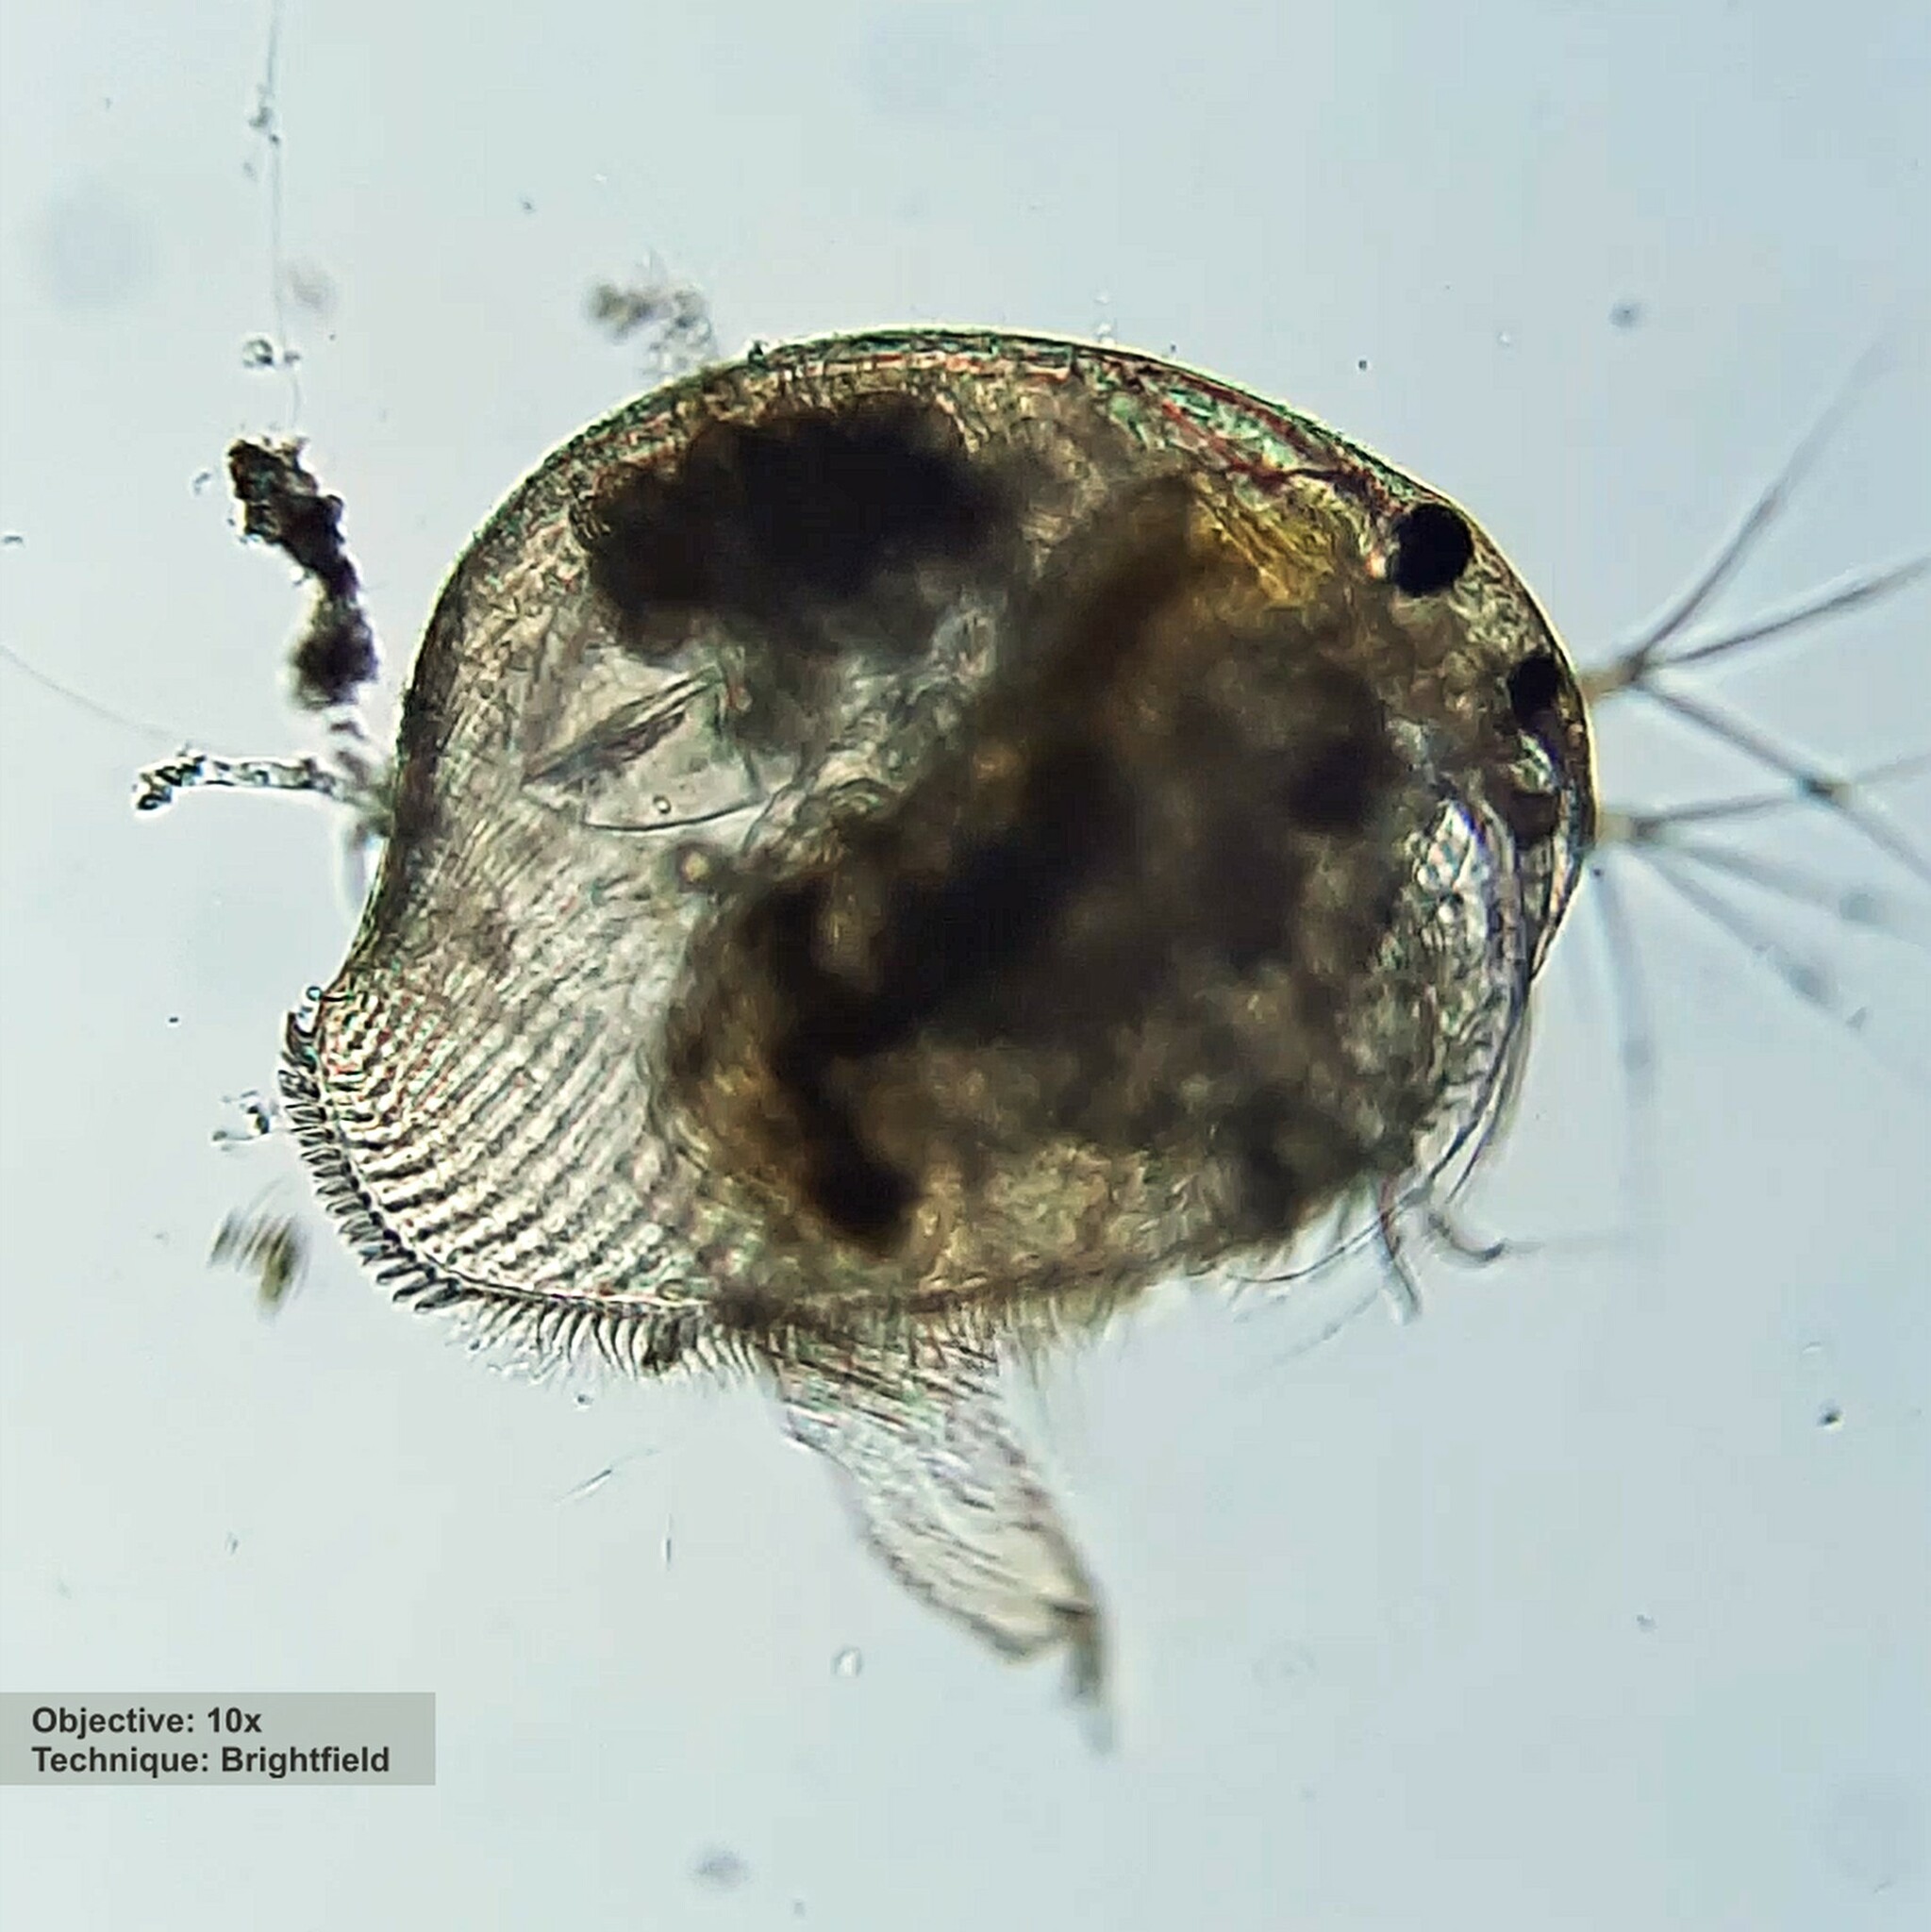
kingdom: Animalia
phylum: Arthropoda
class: Branchiopoda
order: Diplostraca
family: Chydoridae
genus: Peracantha
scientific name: Peracantha truncata
